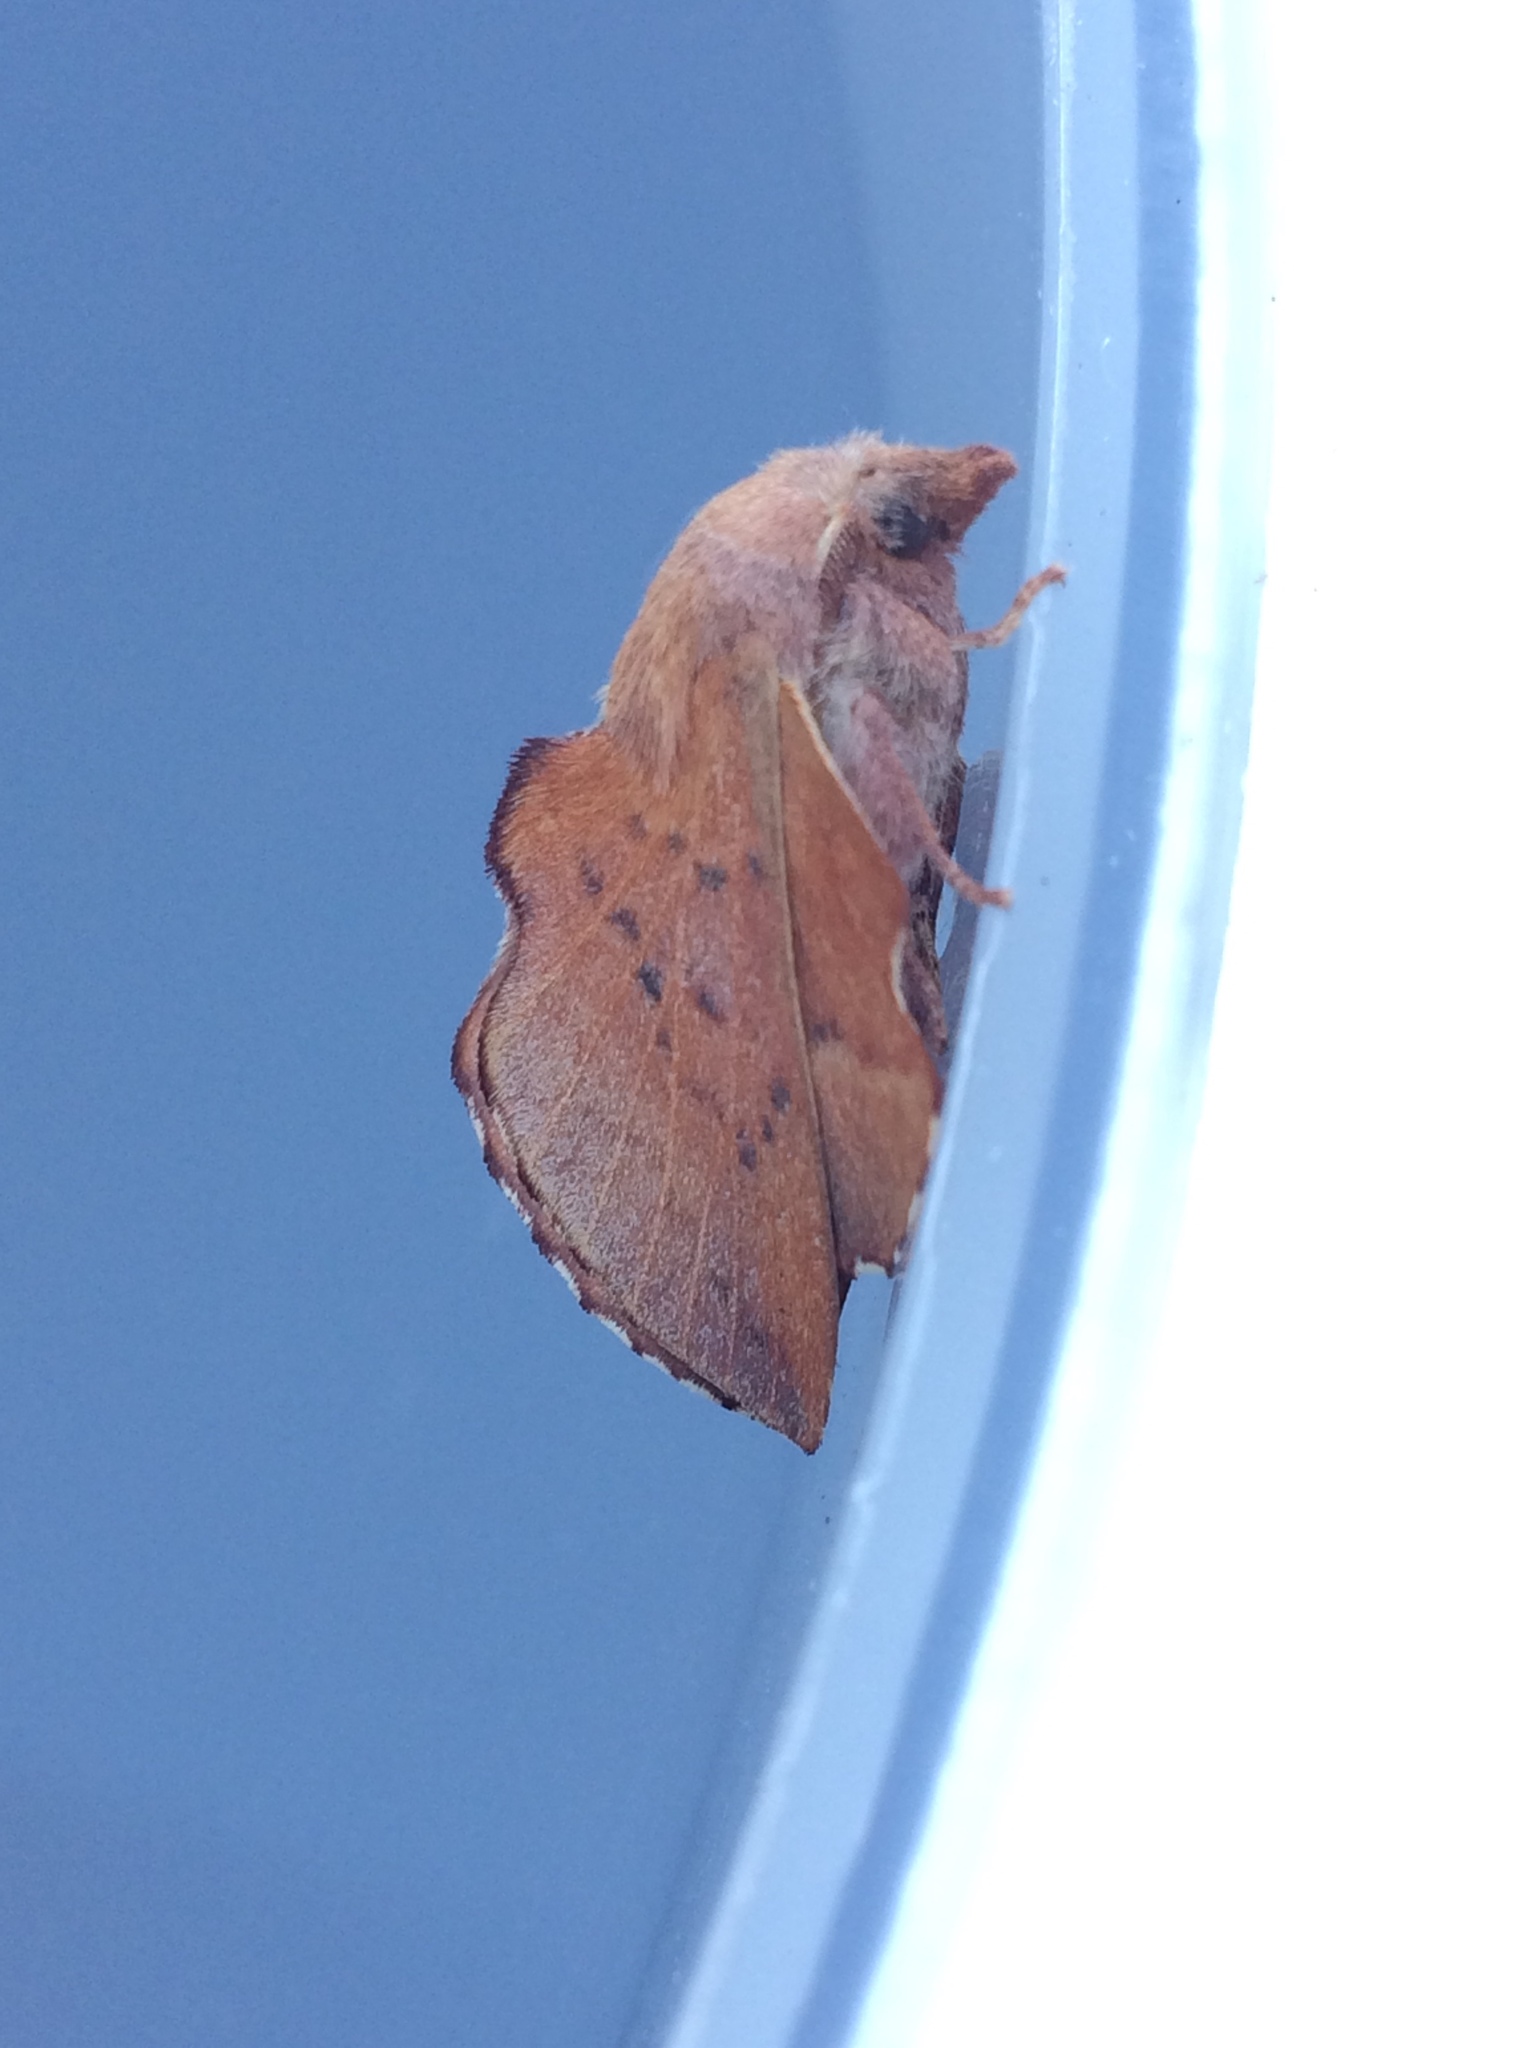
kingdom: Animalia
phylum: Arthropoda
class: Insecta
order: Lepidoptera
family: Lasiocampidae
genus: Phyllodesma
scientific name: Phyllodesma tremulifolia
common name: Aspen lappet
